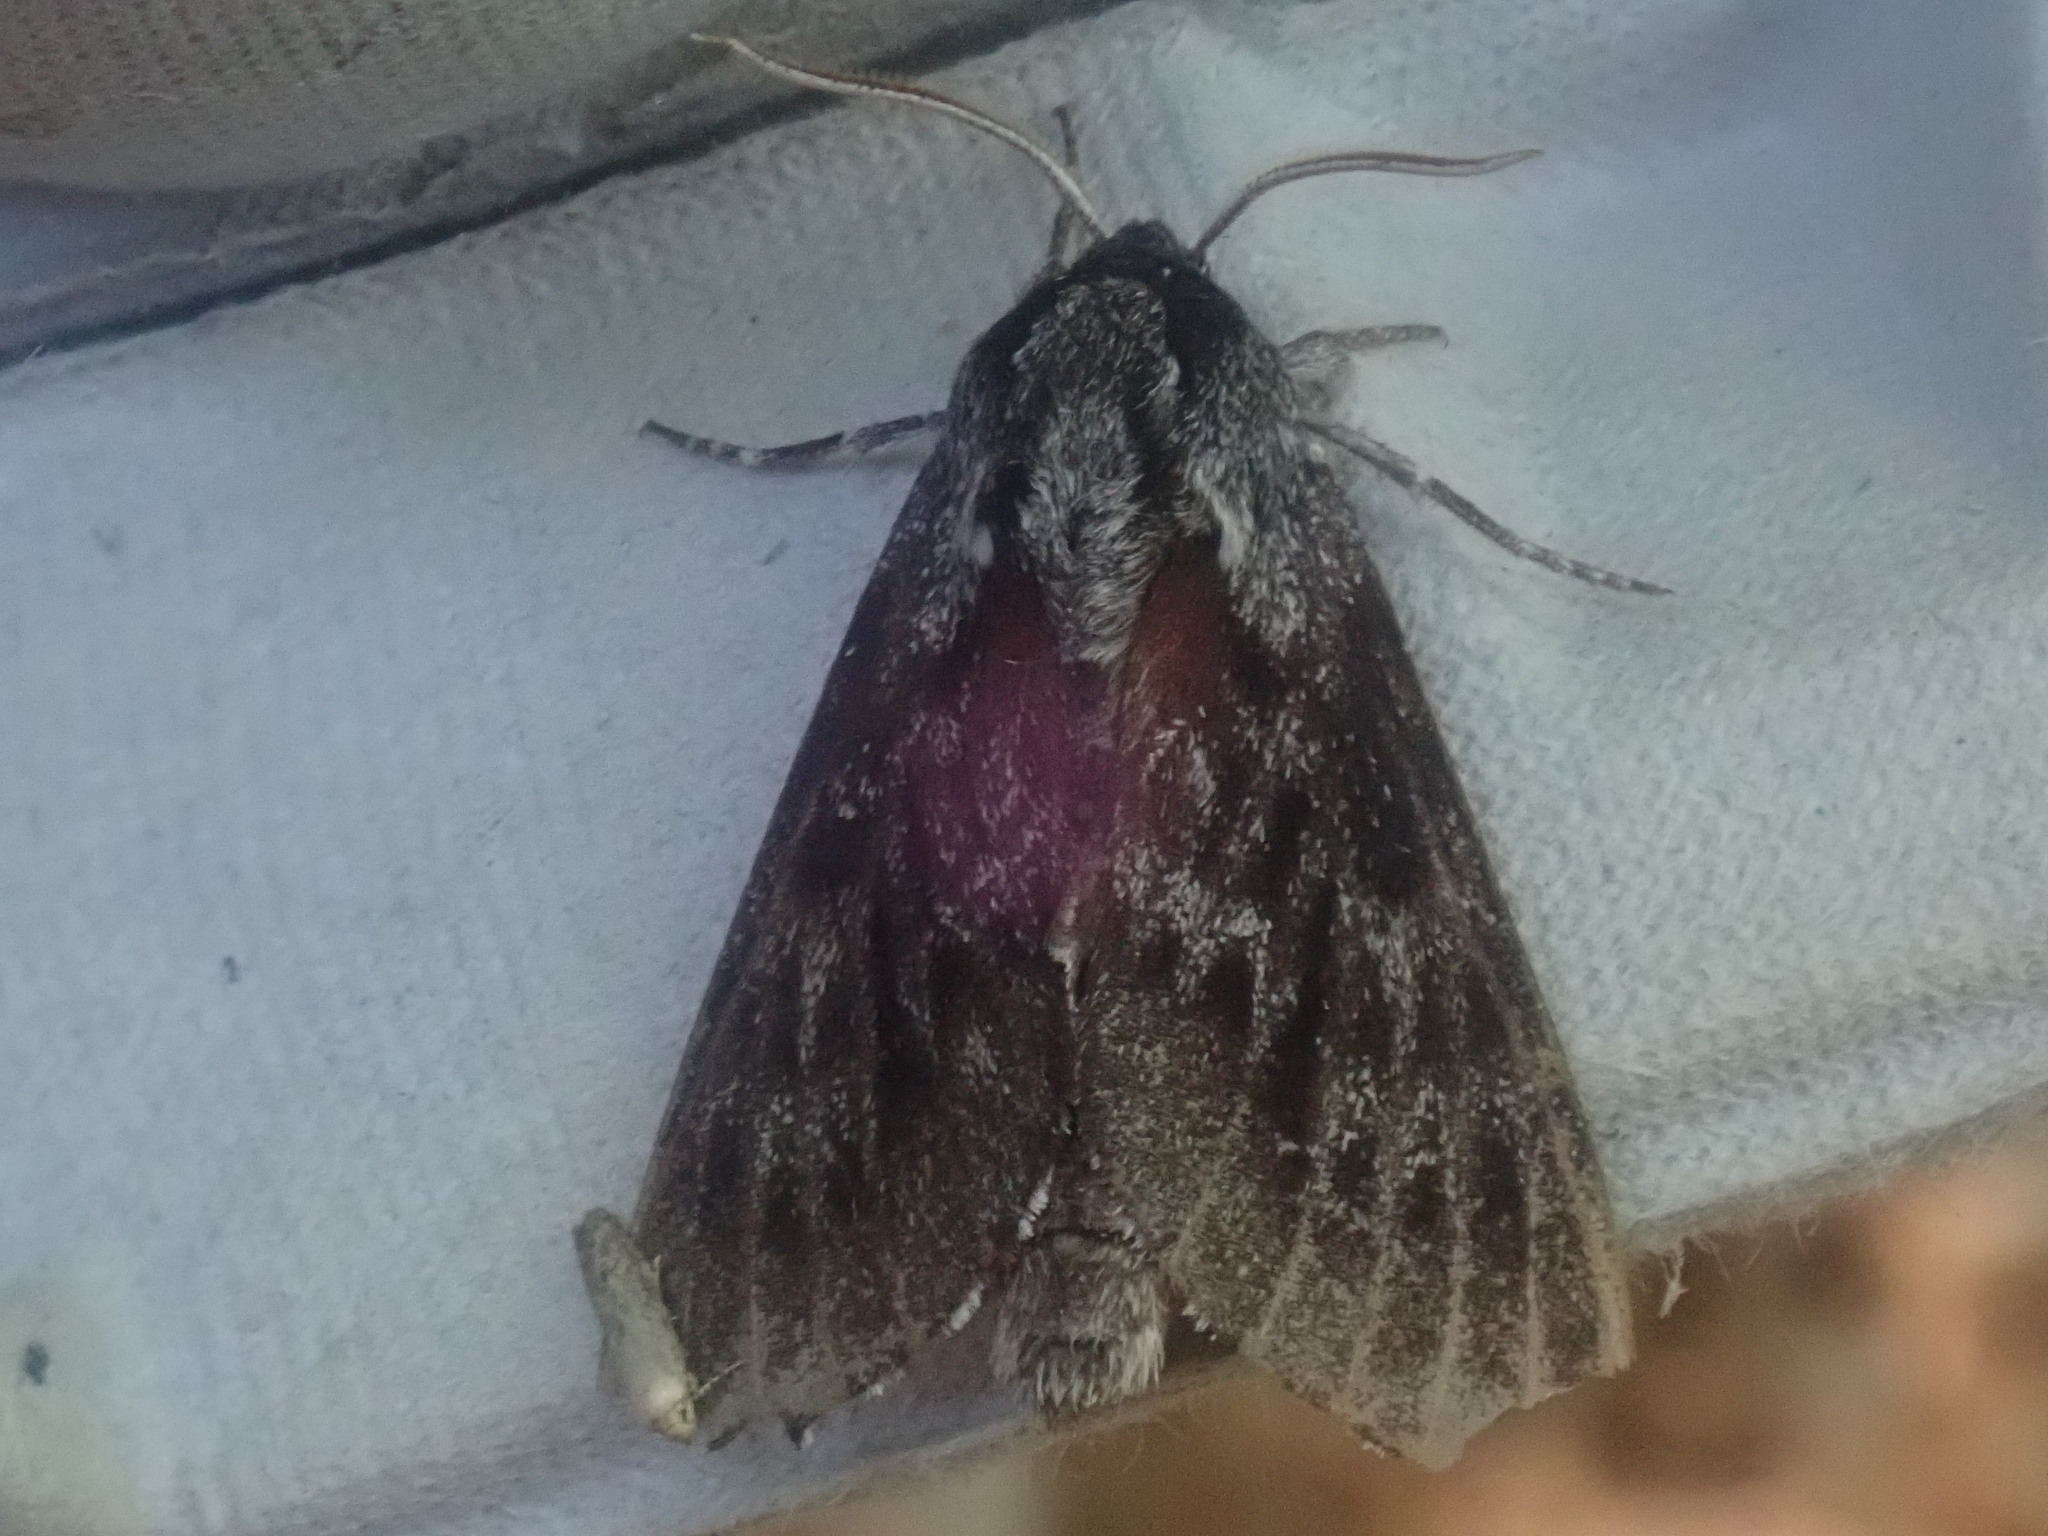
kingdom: Animalia
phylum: Arthropoda
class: Insecta
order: Lepidoptera
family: Sphingidae
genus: Lapara
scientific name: Lapara bombycoides
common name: Northern pine sphinx
